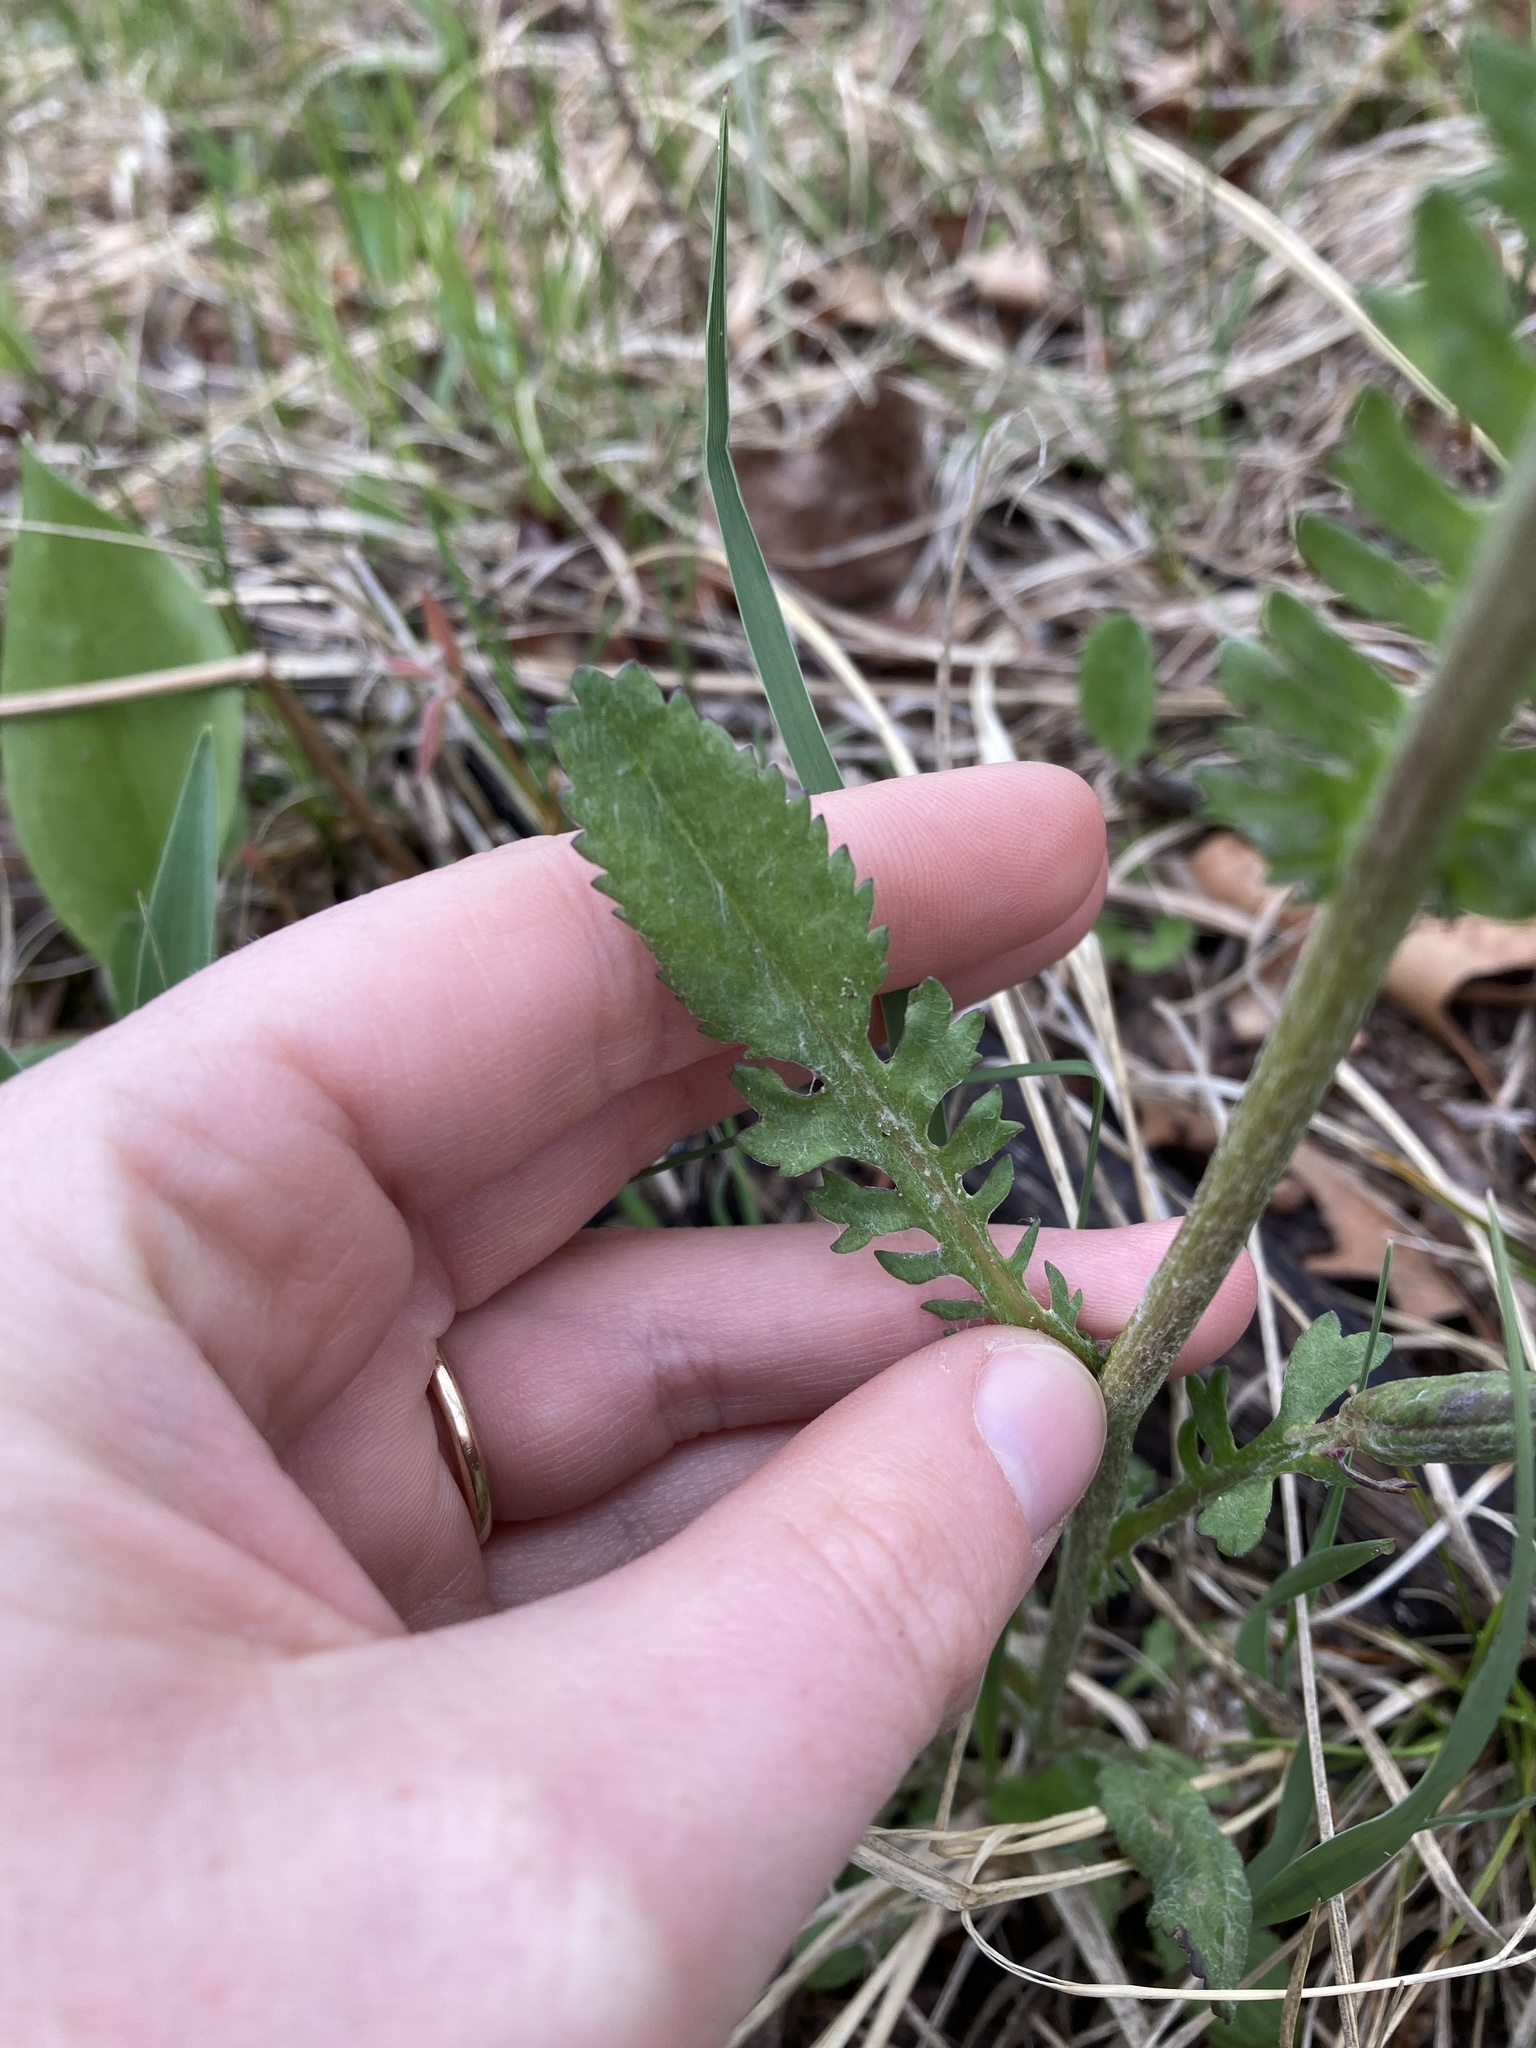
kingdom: Plantae
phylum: Tracheophyta
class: Magnoliopsida
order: Asterales
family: Asteraceae
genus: Packera
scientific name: Packera paupercula
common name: Balsam groundsel
